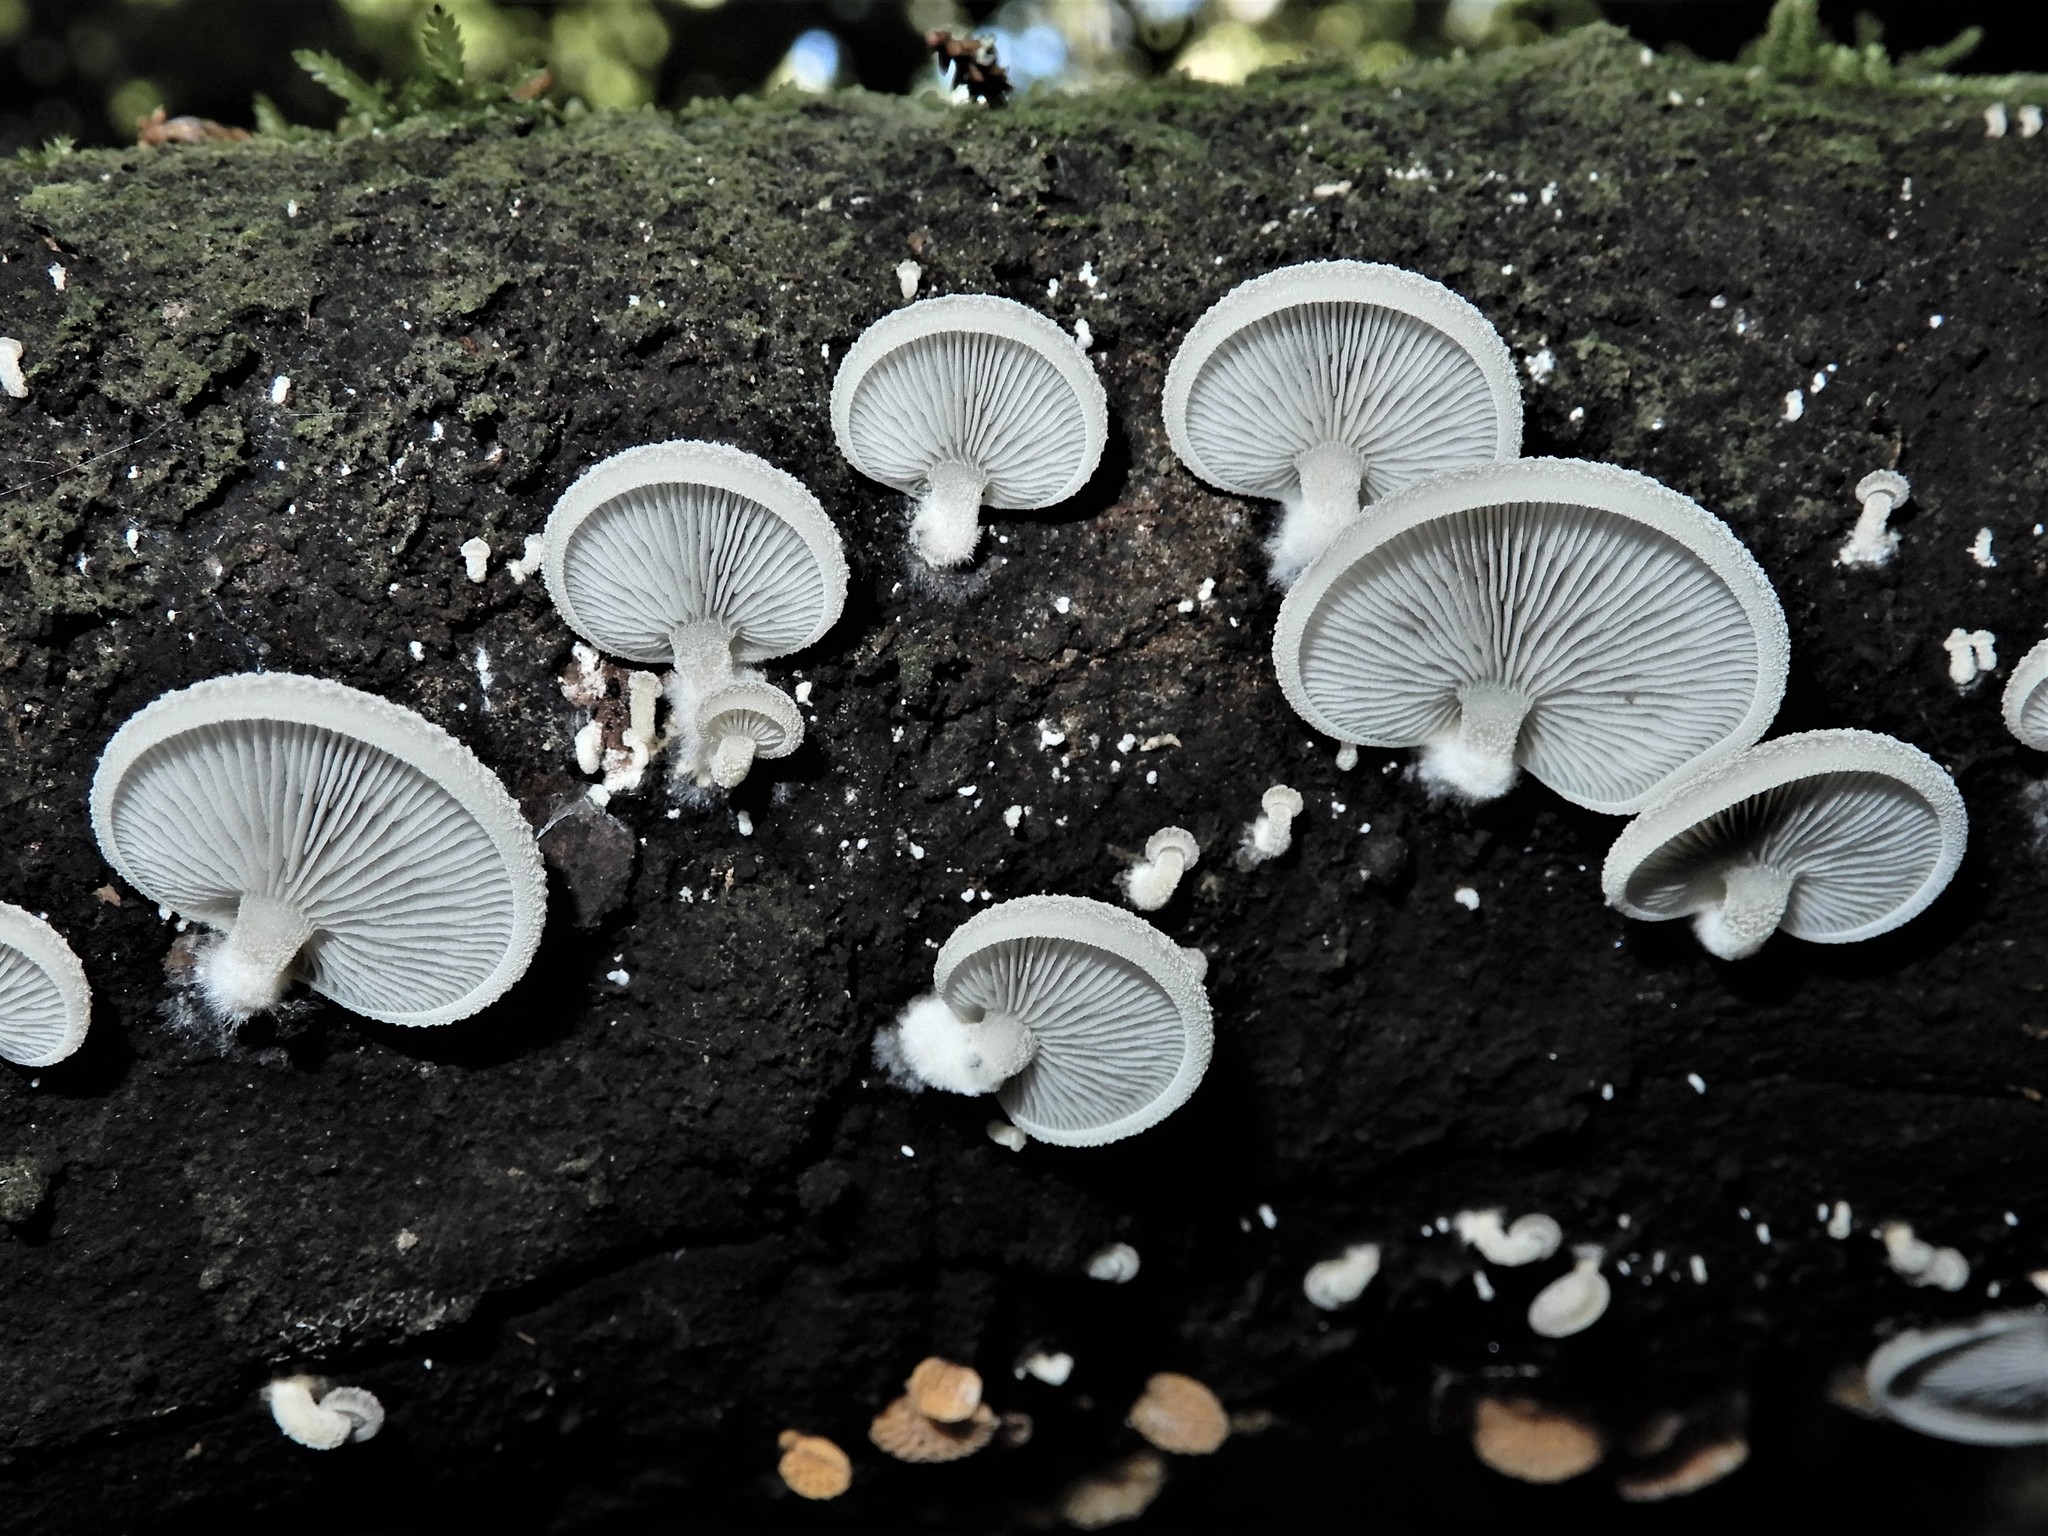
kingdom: Fungi
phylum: Basidiomycota
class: Agaricomycetes
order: Agaricales
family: Tricholomataceae
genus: Conchomyces
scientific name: Conchomyces bursiformis
